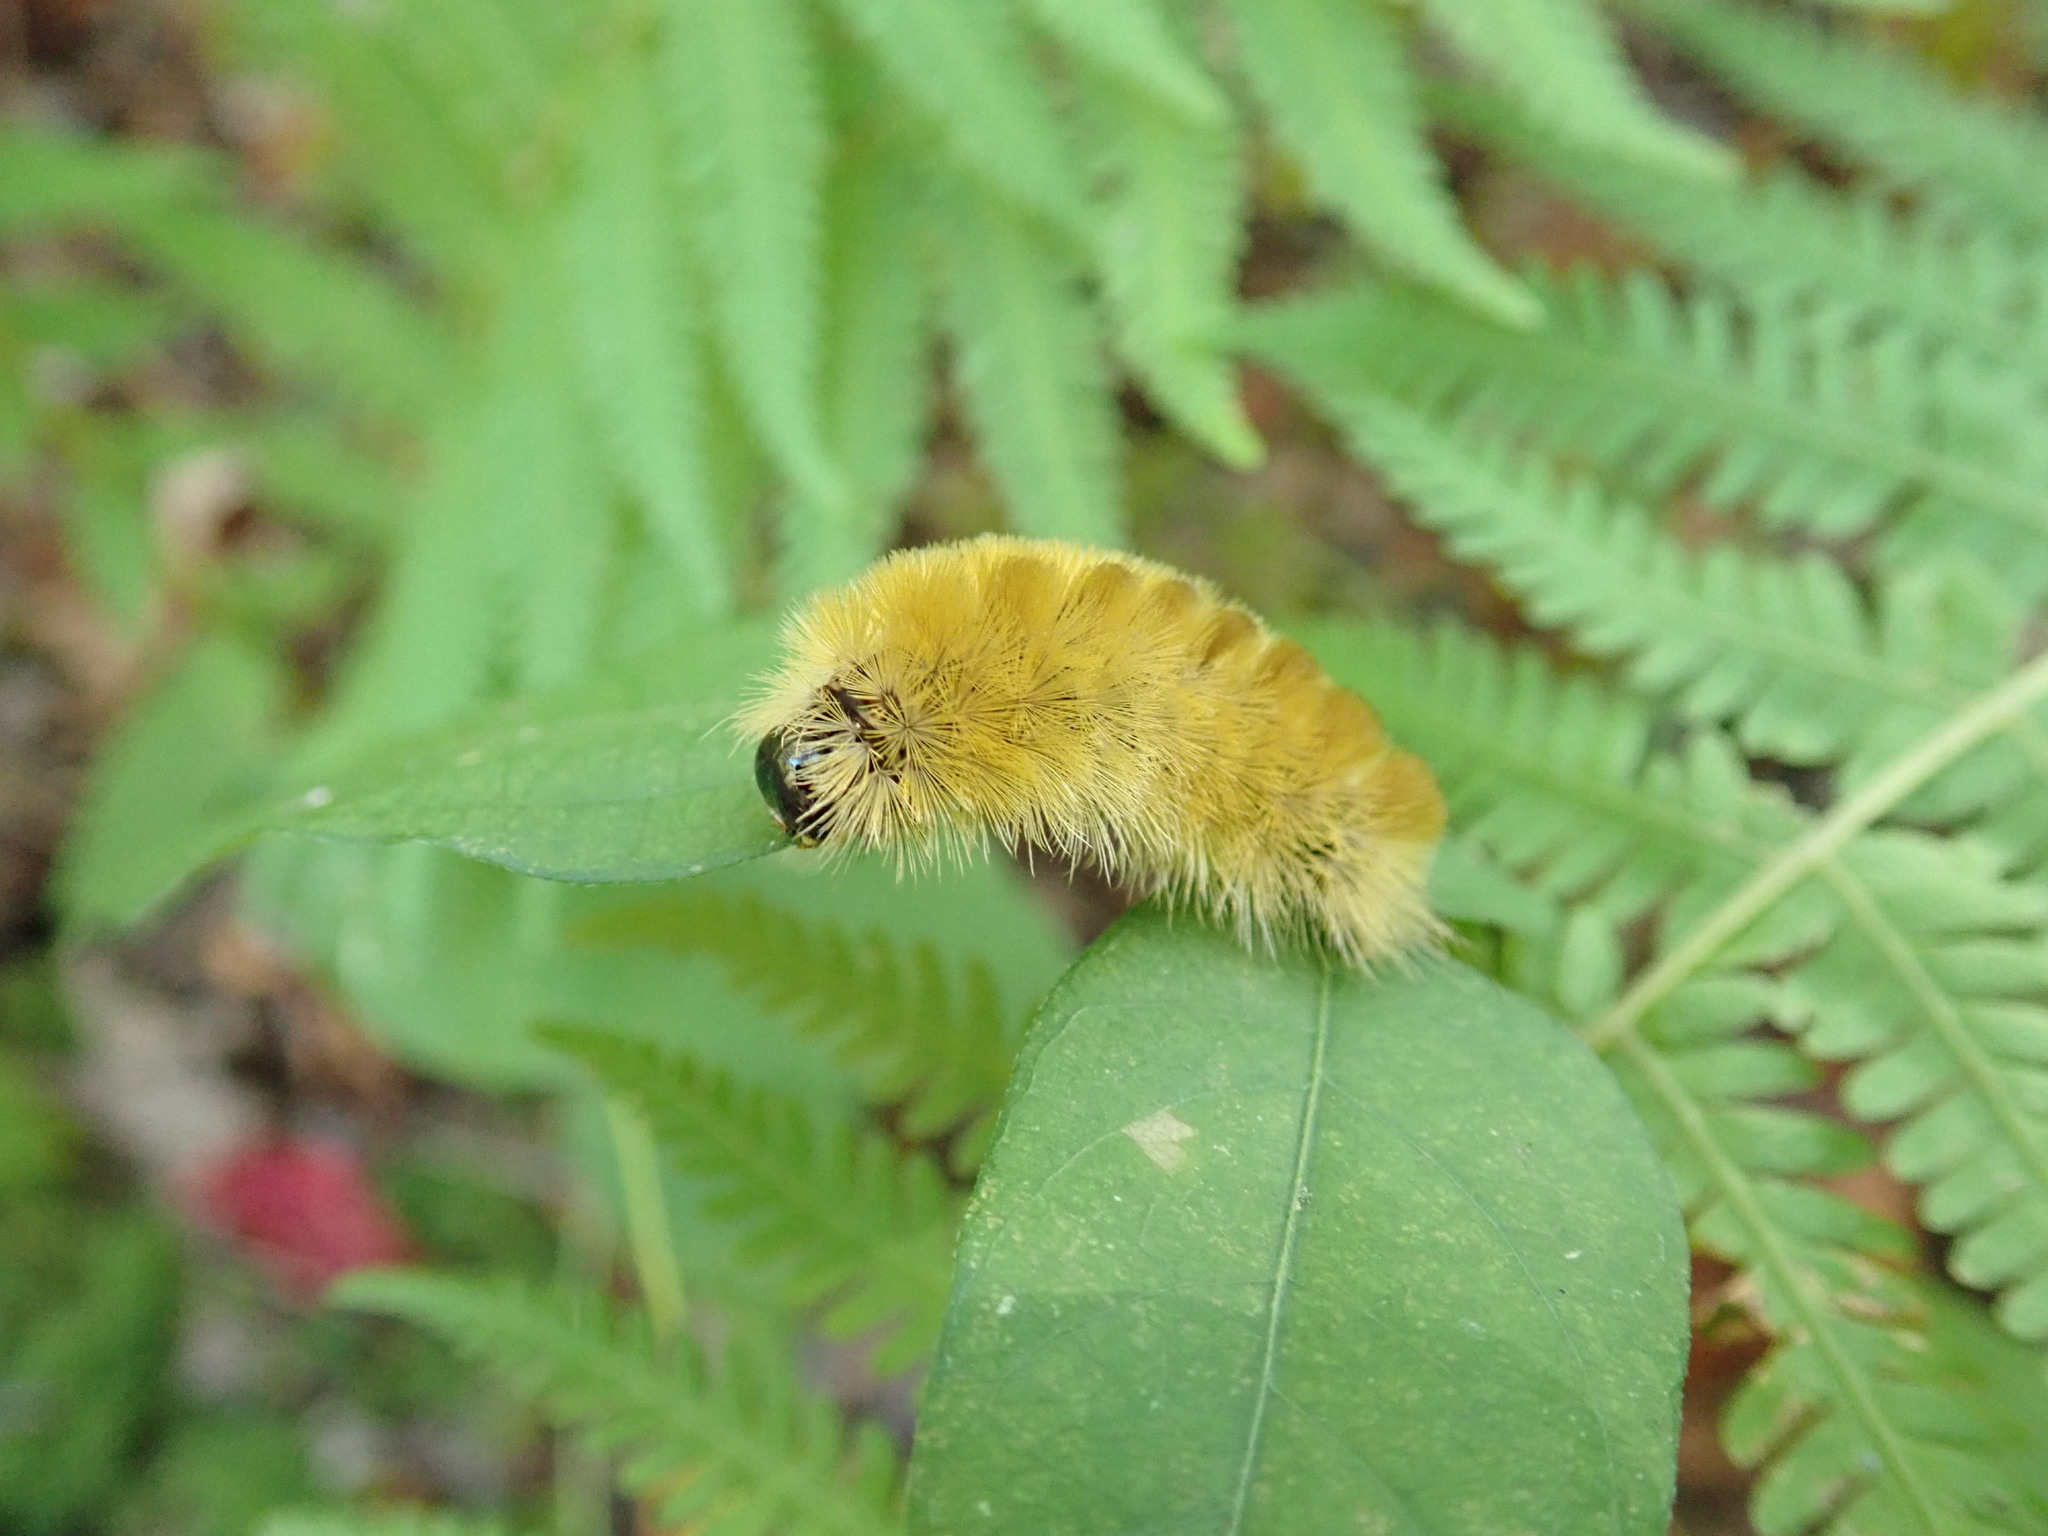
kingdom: Animalia
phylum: Arthropoda
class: Insecta
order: Lepidoptera
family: Erebidae
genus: Halysidota
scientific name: Halysidota tessellaris
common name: Banded tussock moth
